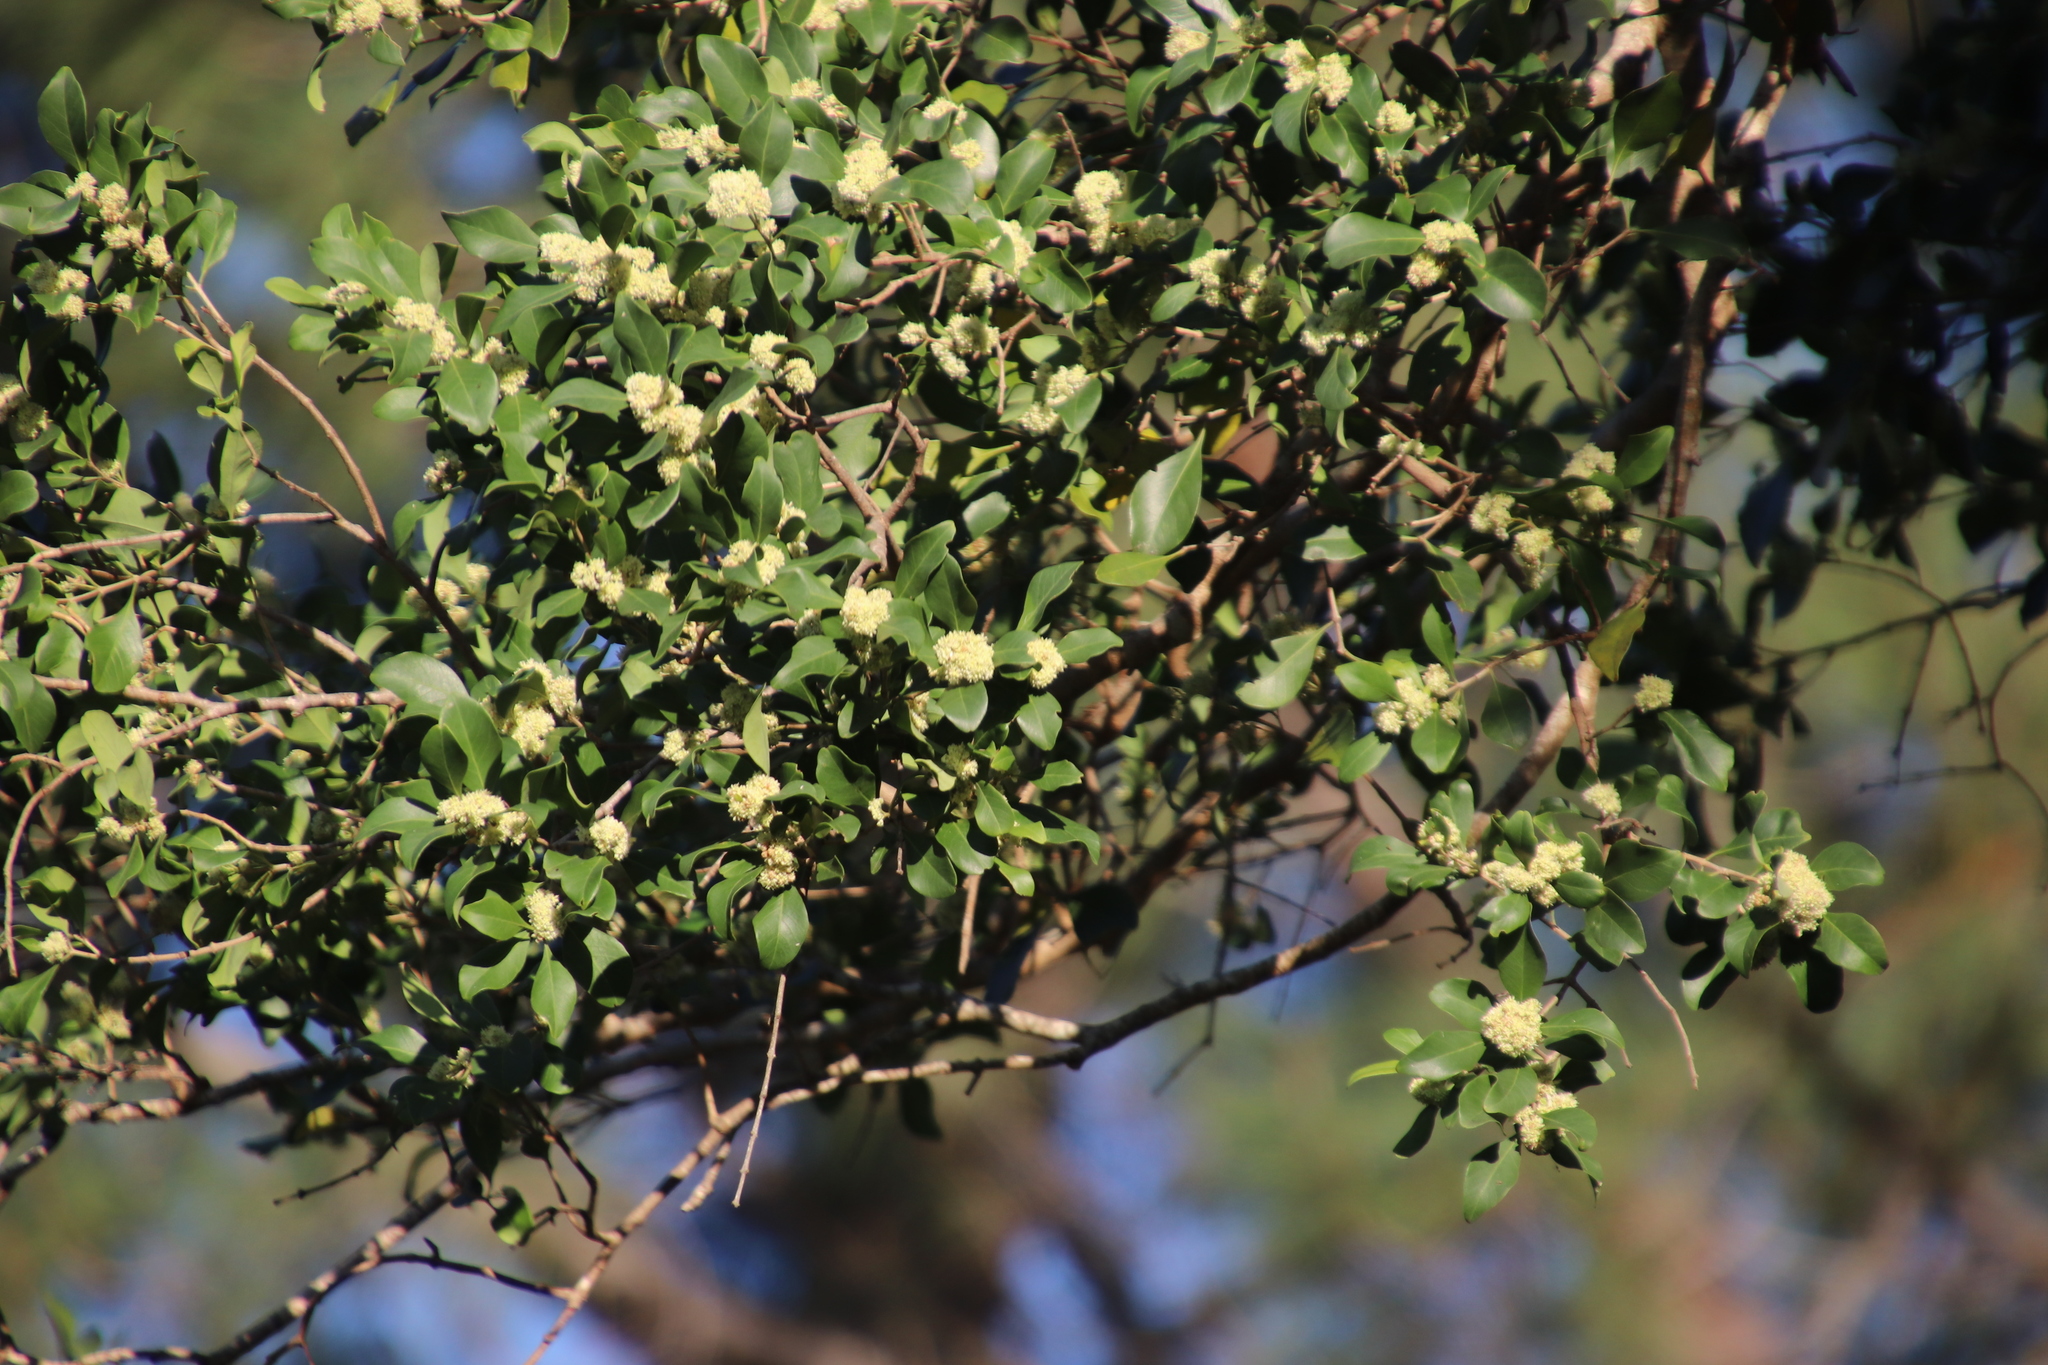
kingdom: Plantae
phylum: Tracheophyta
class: Magnoliopsida
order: Myrtales
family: Penaeaceae
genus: Olinia
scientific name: Olinia ventosa
